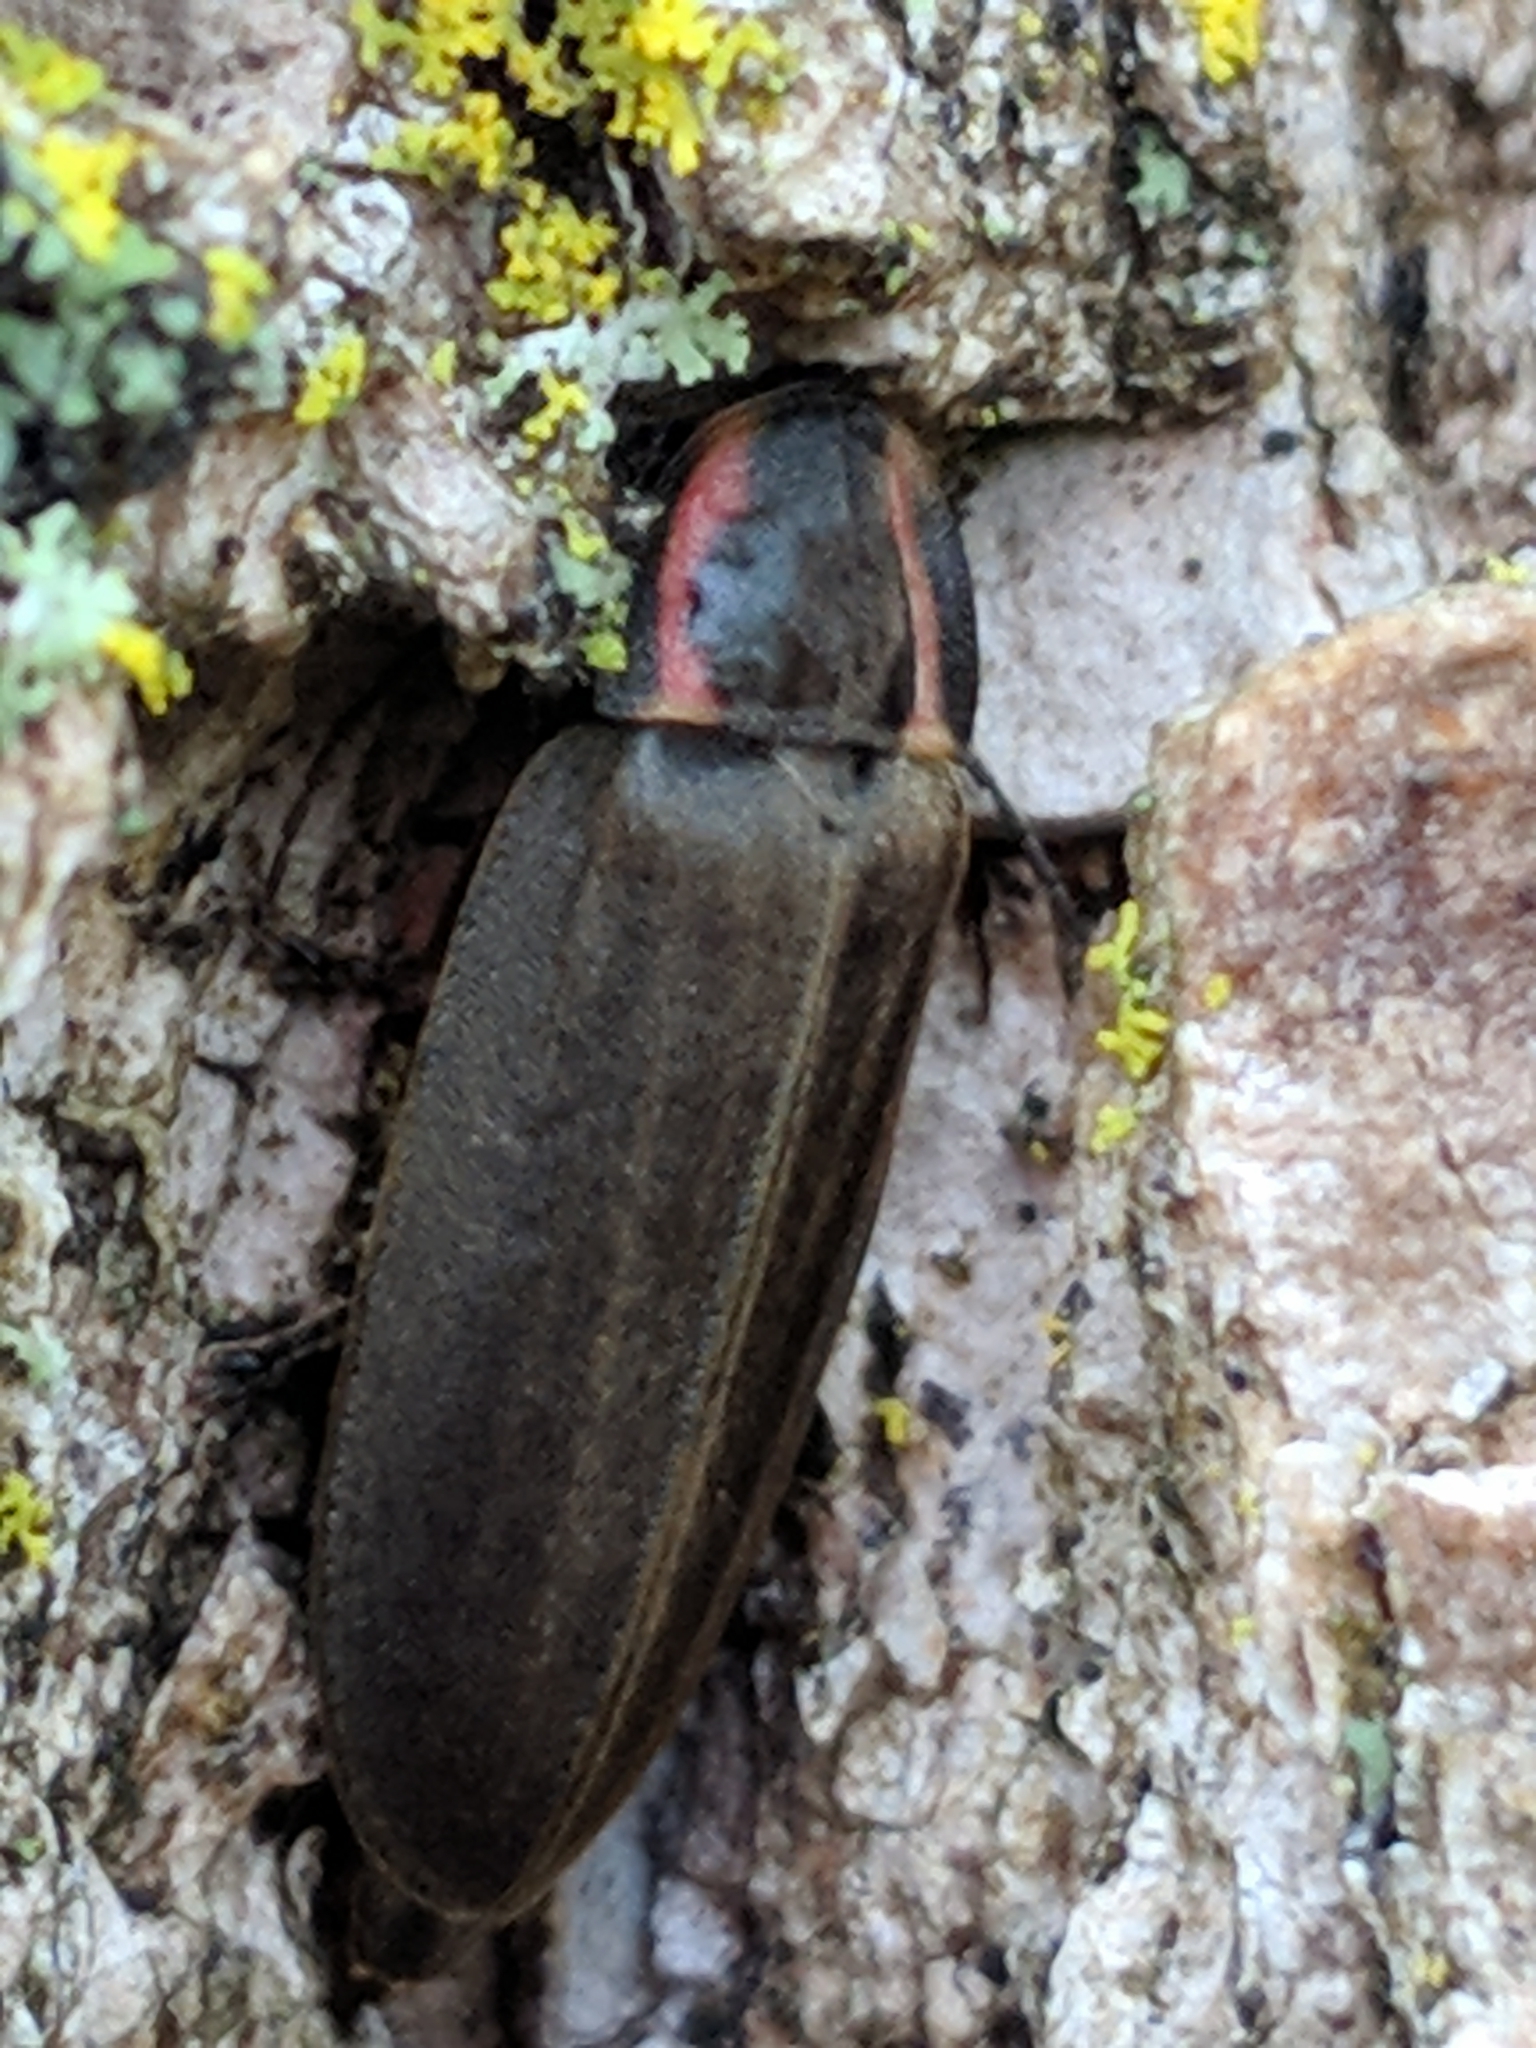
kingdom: Animalia
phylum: Arthropoda
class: Insecta
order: Coleoptera
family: Lampyridae
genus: Photinus
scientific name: Photinus corrusca
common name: Winter firefly
